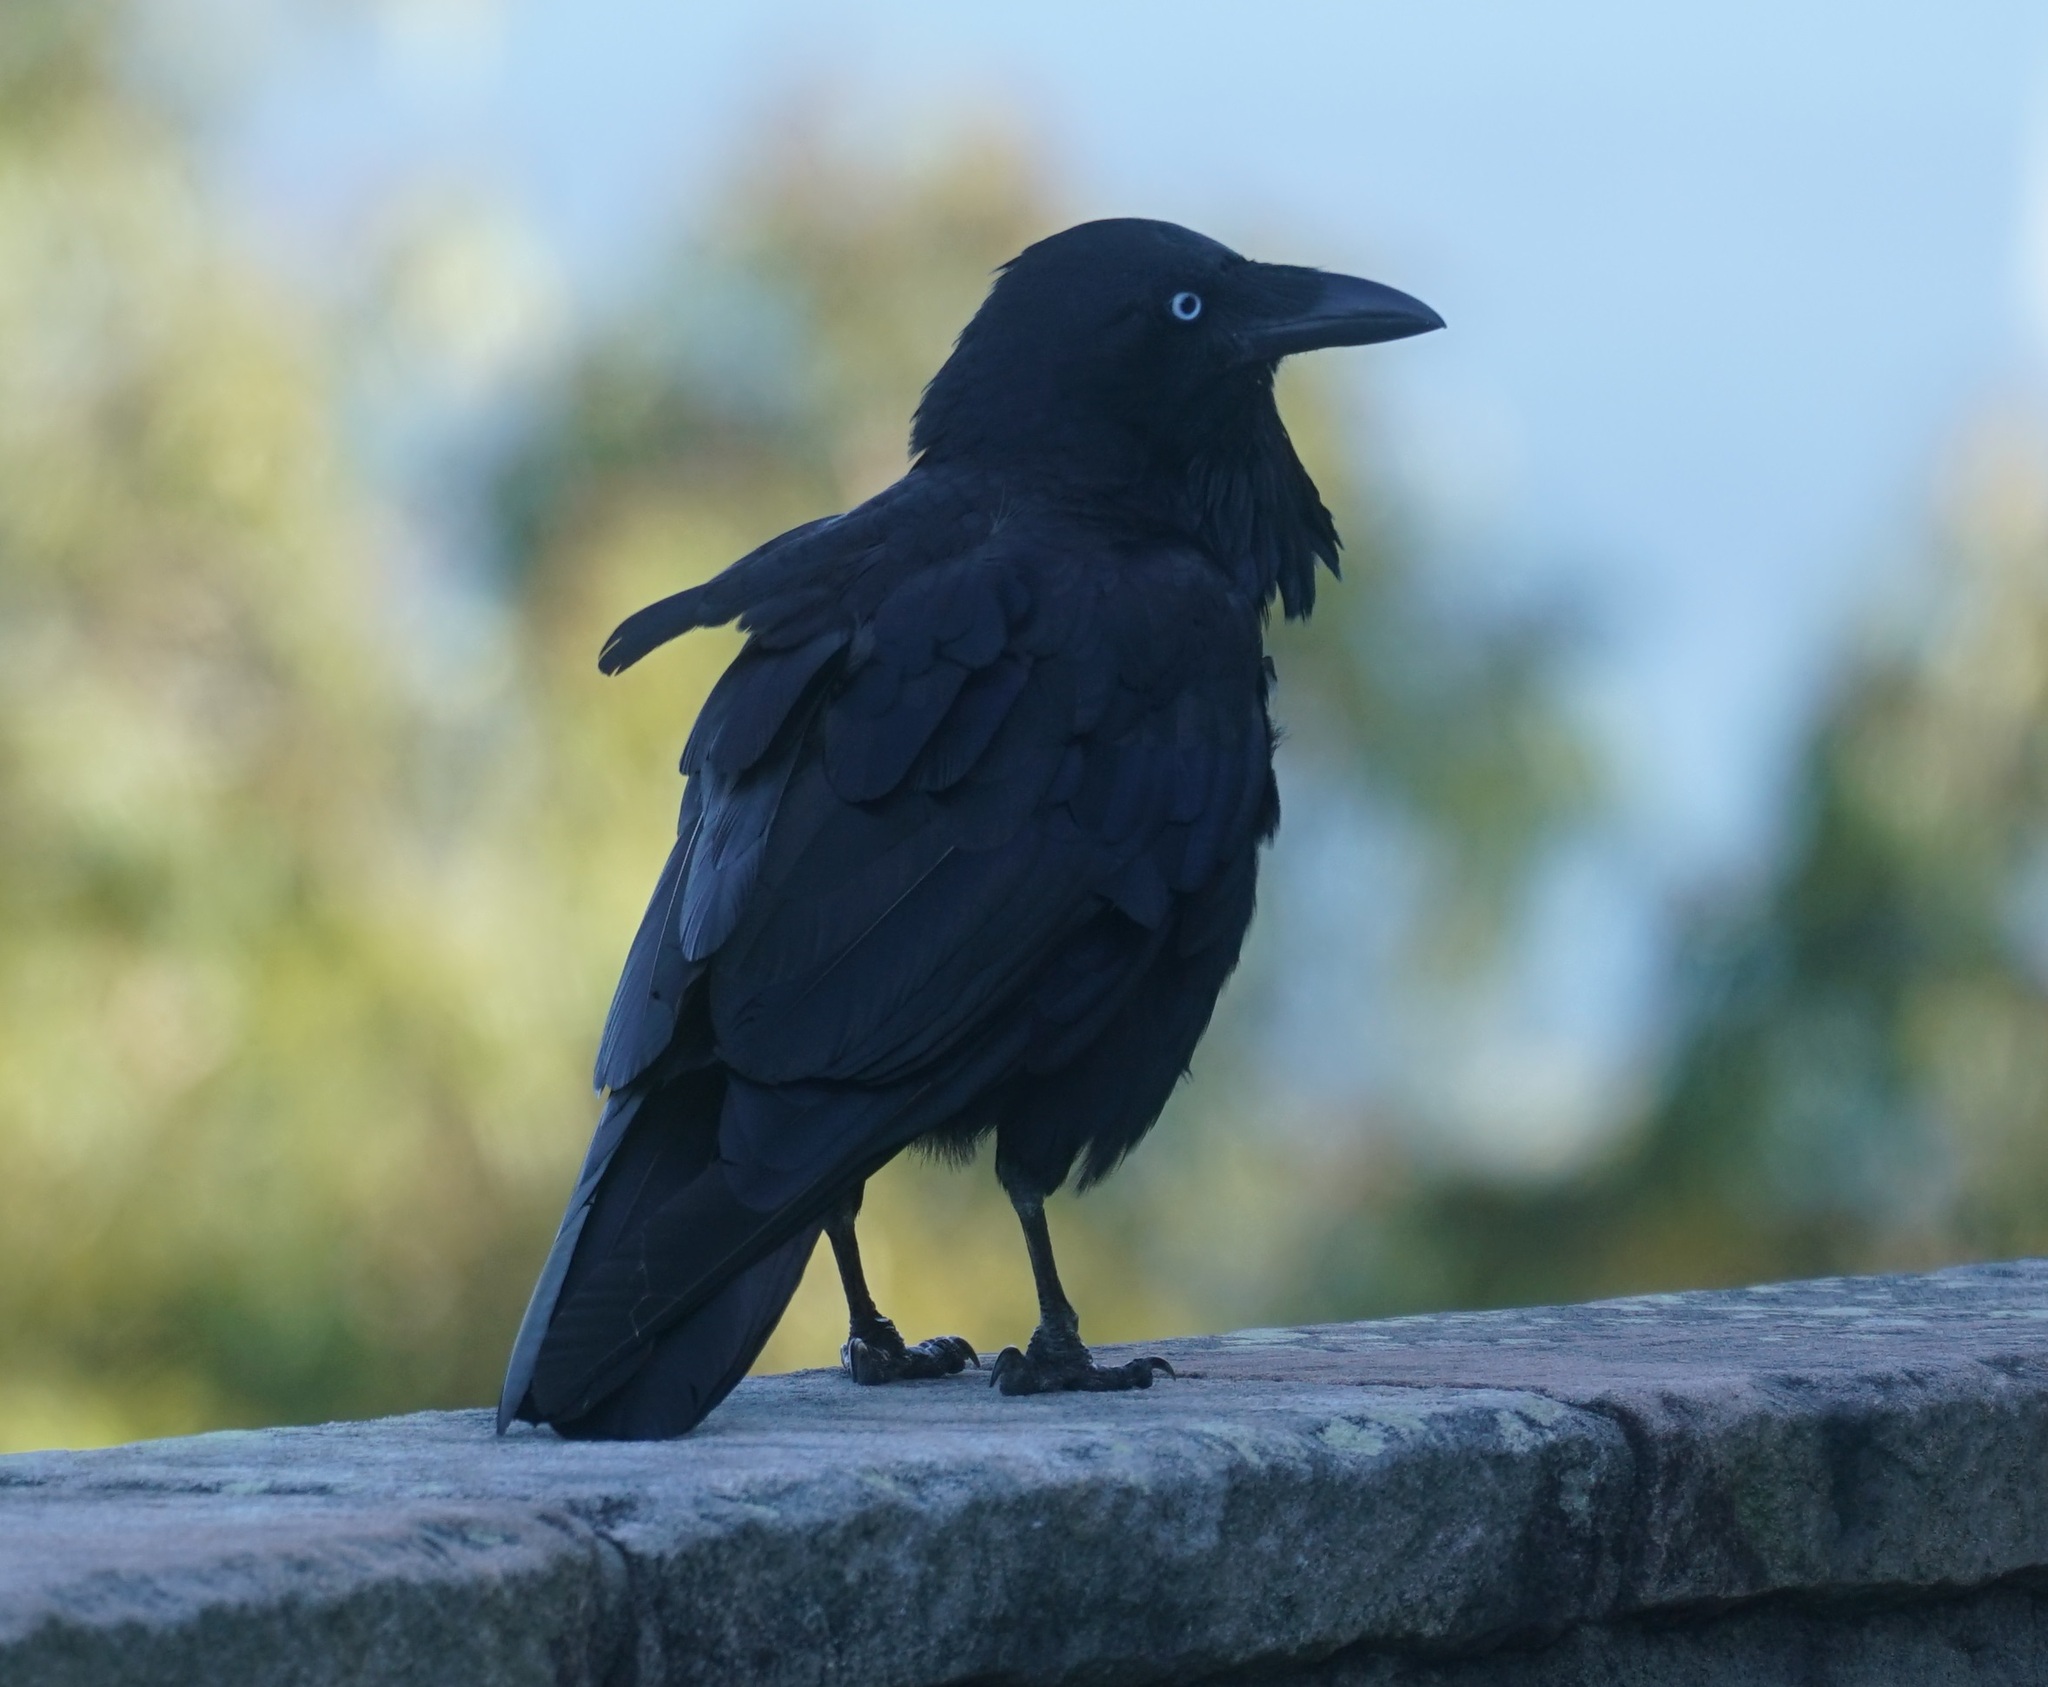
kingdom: Animalia
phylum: Chordata
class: Aves
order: Passeriformes
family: Corvidae
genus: Corvus
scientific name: Corvus coronoides
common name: Australian raven
